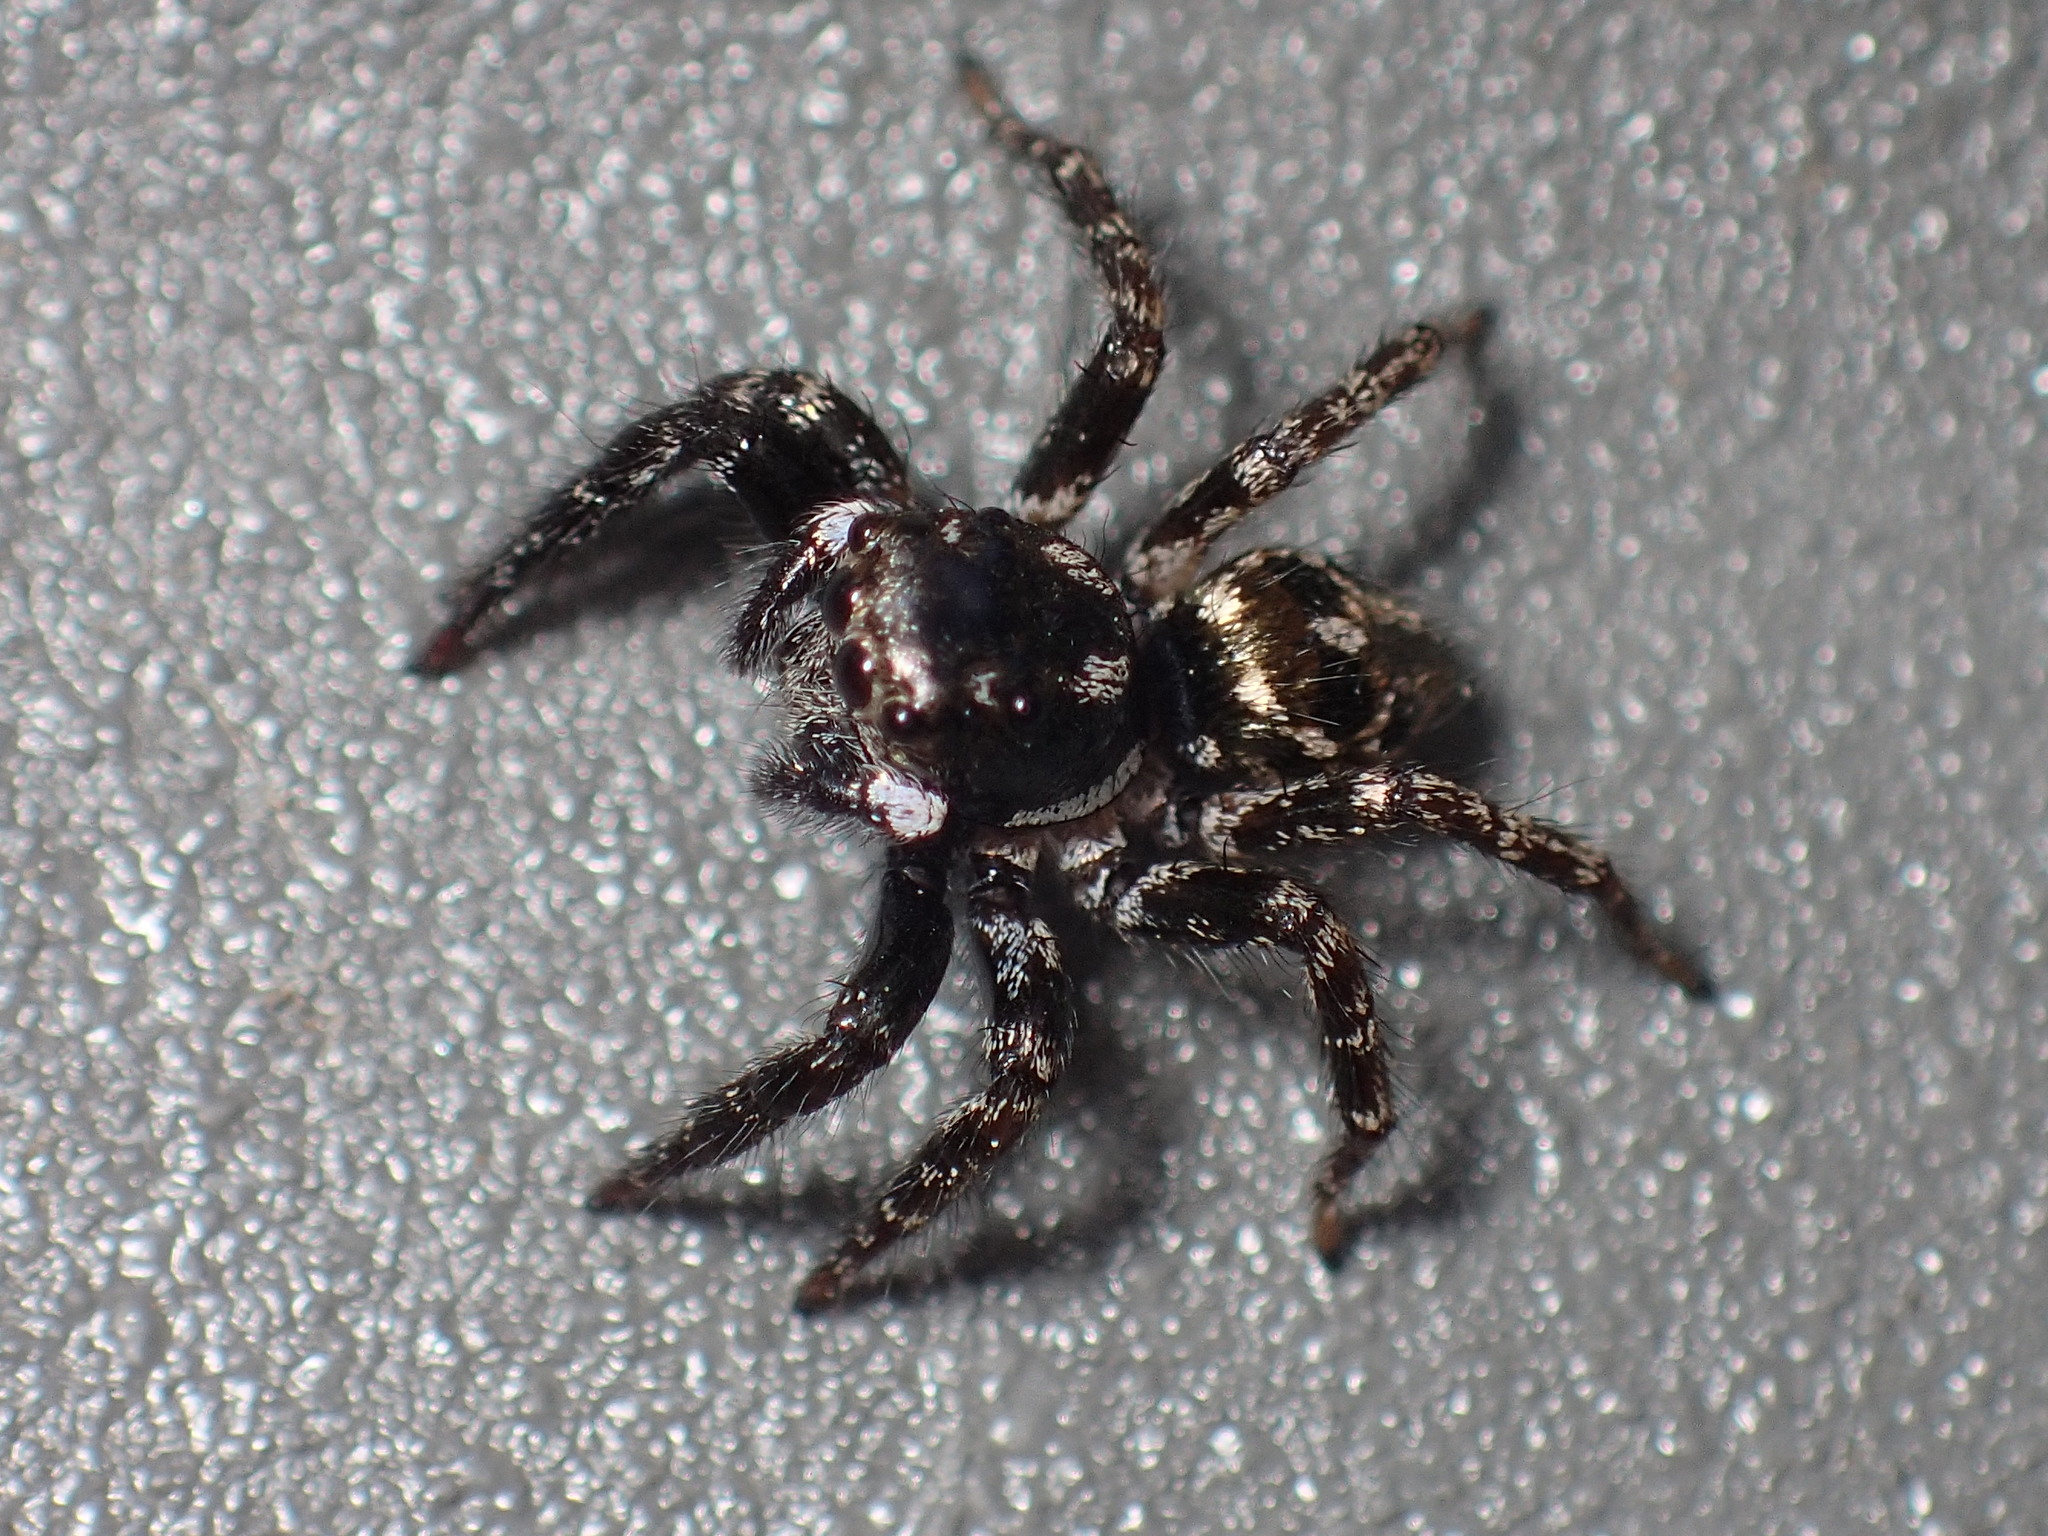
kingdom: Animalia
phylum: Arthropoda
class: Arachnida
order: Araneae
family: Salticidae
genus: Anasaitis
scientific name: Anasaitis canosa
